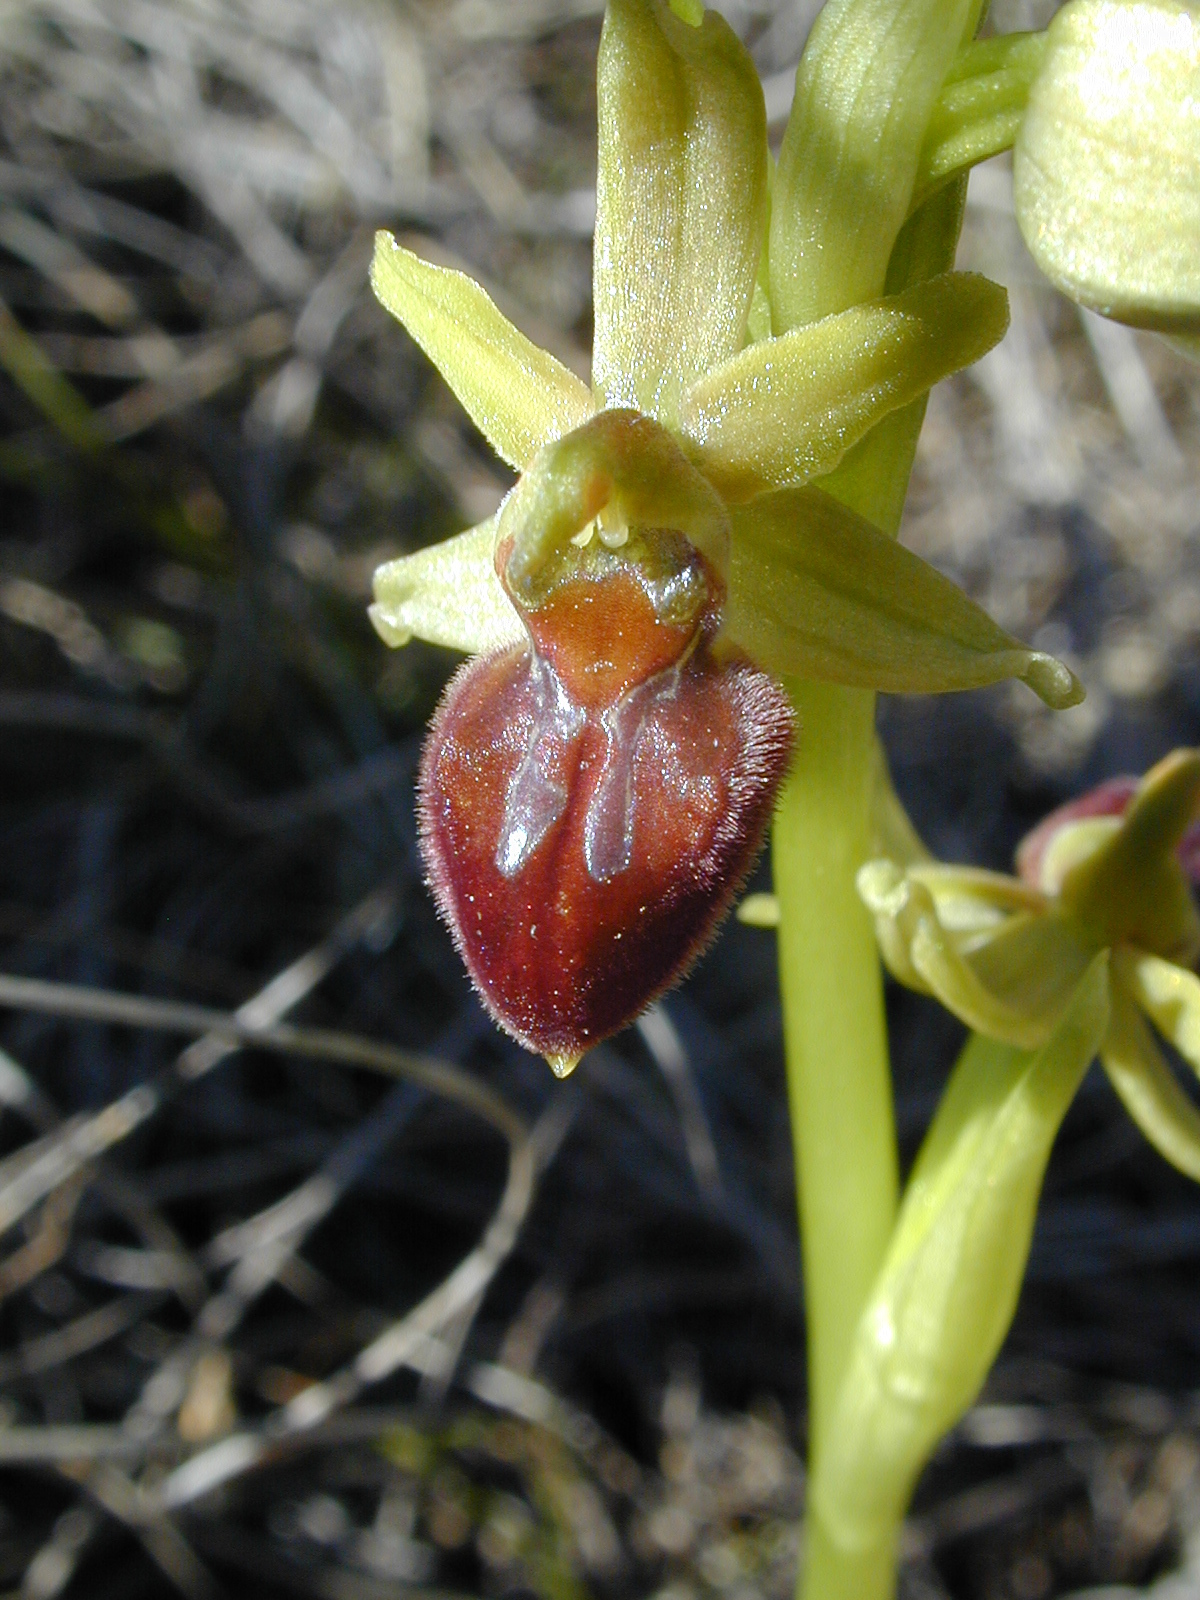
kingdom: Plantae
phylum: Tracheophyta
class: Liliopsida
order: Asparagales
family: Orchidaceae
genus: Ophrys
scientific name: Ophrys sphegodes
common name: Early spider-orchid
